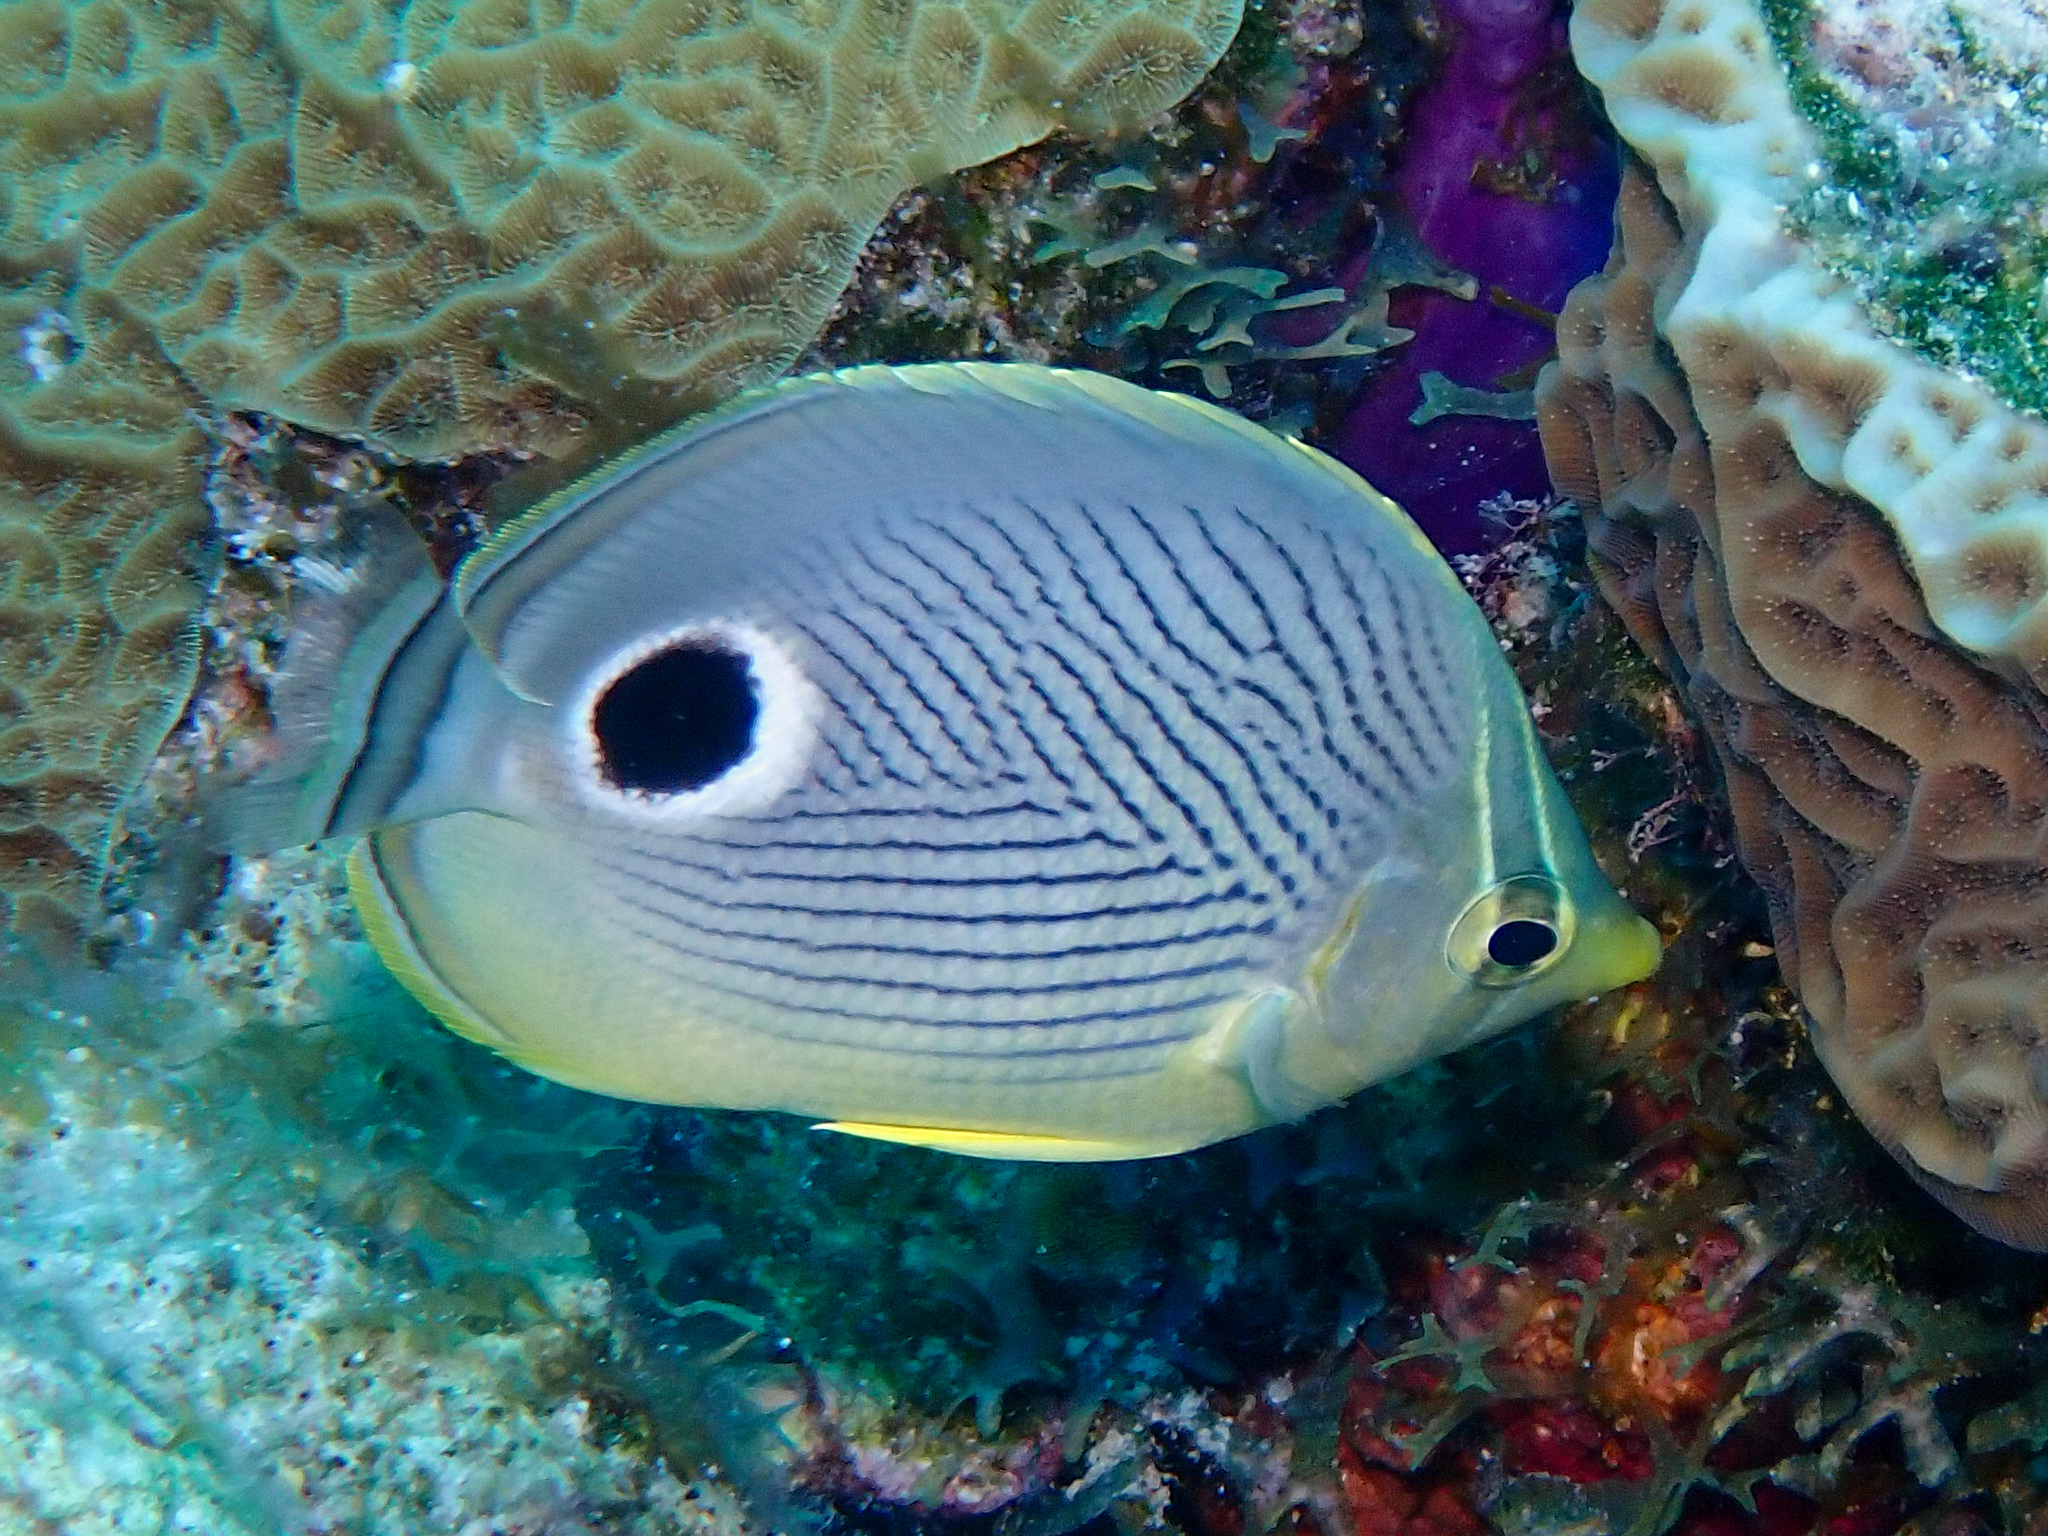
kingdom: Animalia
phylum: Chordata
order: Perciformes
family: Chaetodontidae
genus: Chaetodon
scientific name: Chaetodon capistratus
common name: Kete
